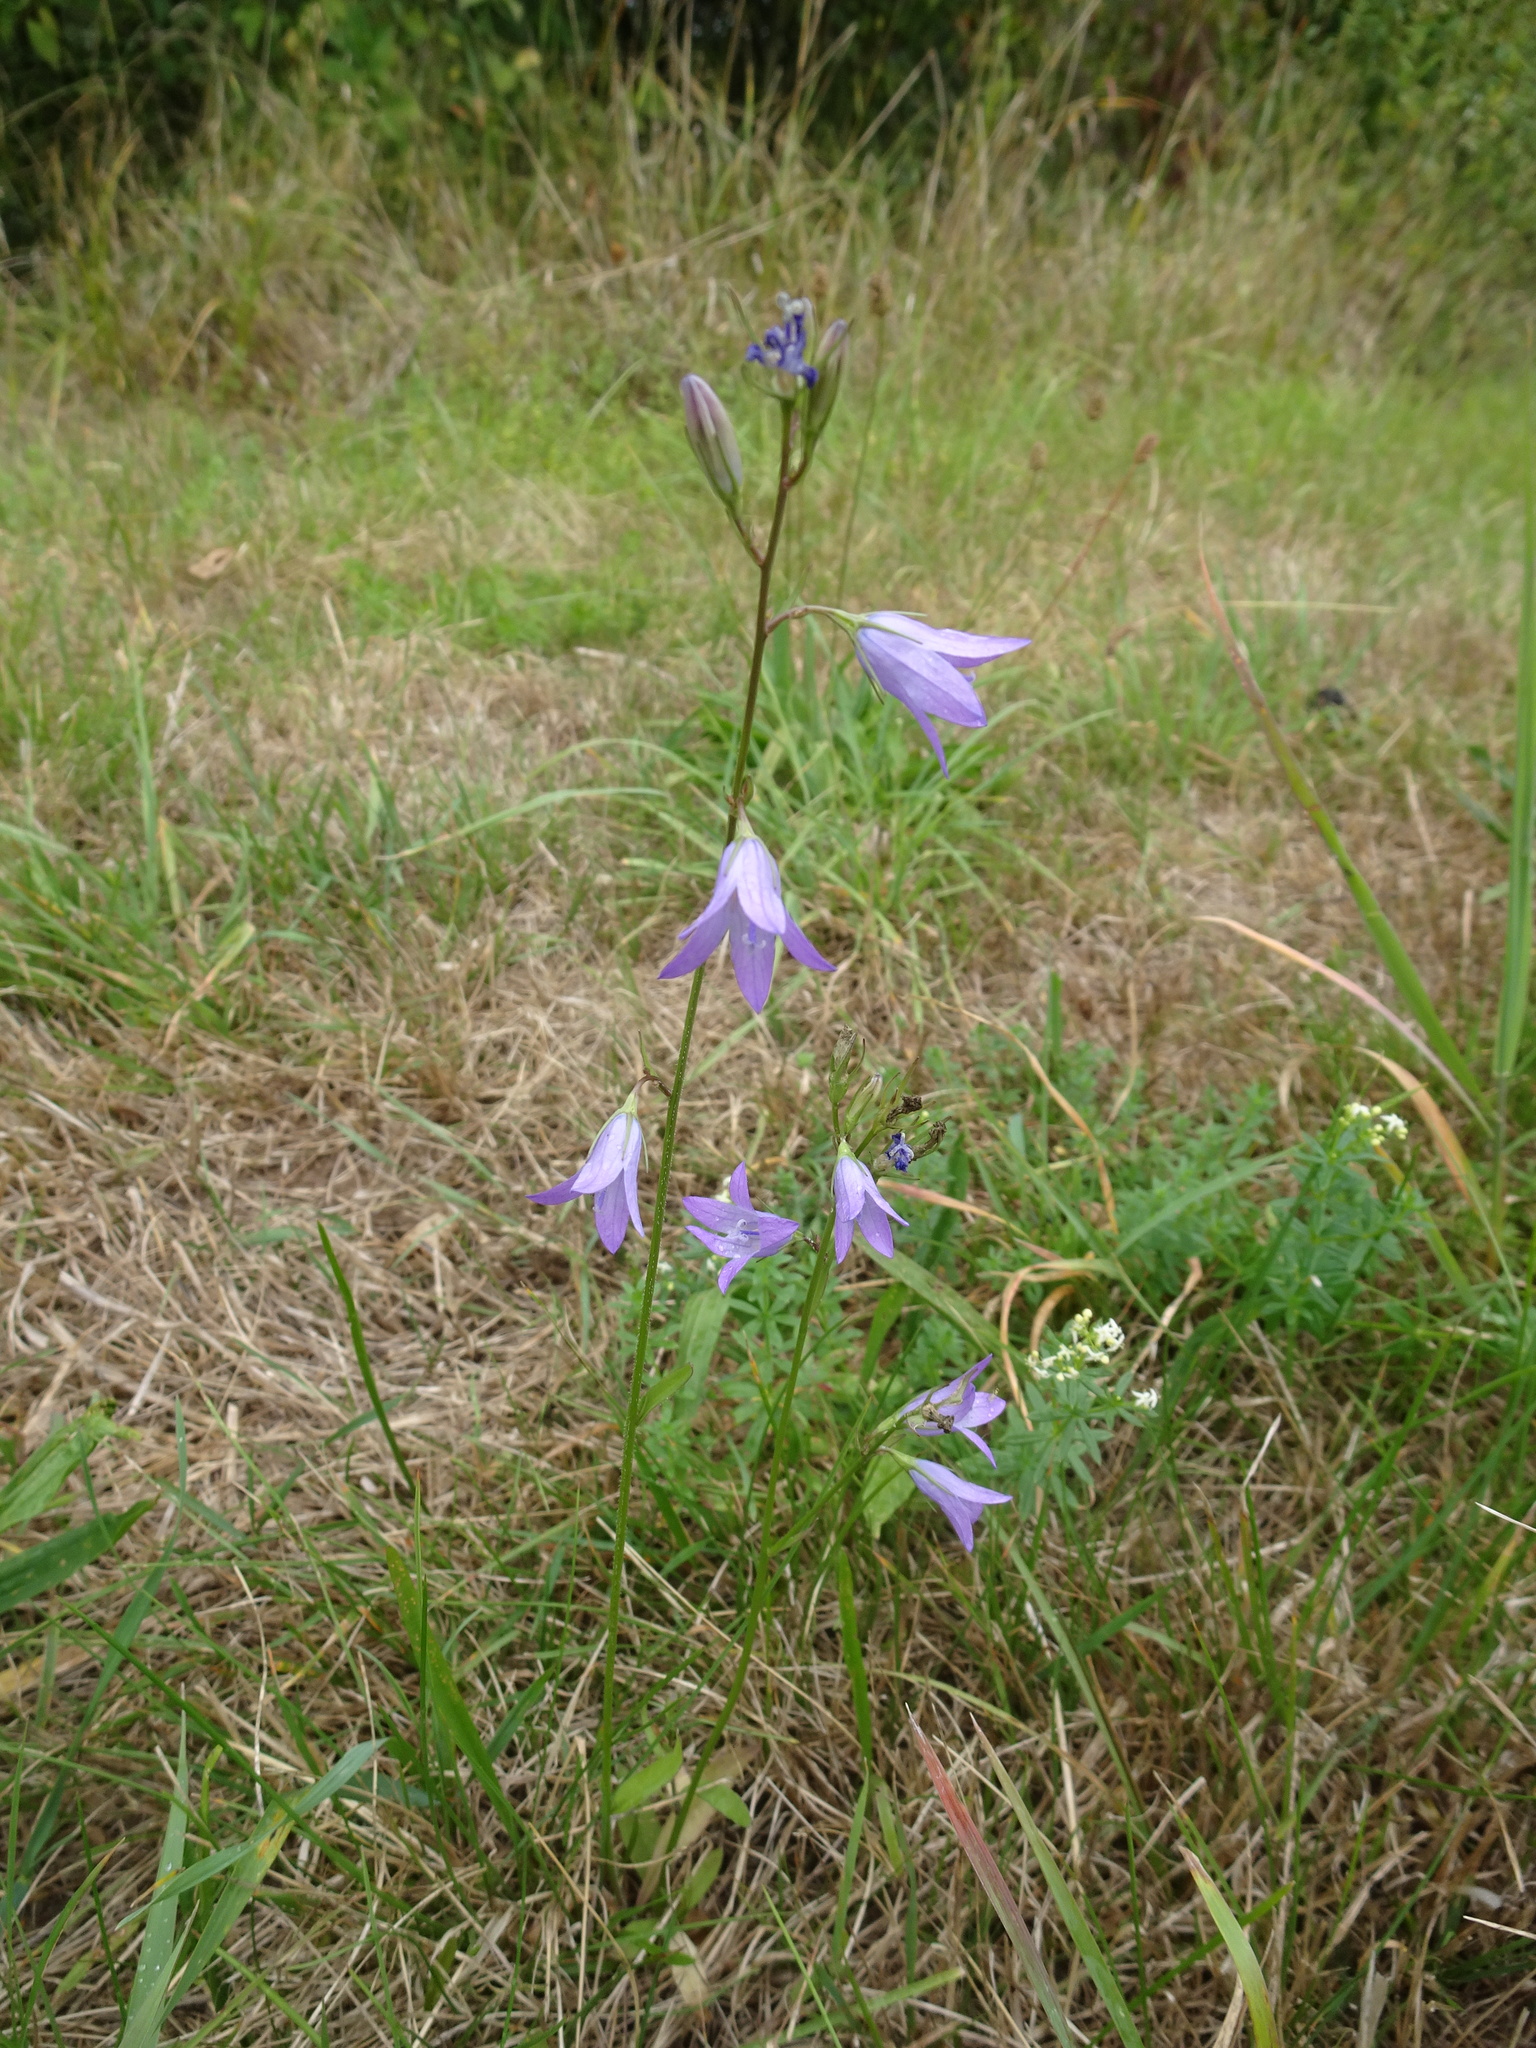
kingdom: Plantae
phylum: Tracheophyta
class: Magnoliopsida
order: Asterales
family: Campanulaceae
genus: Campanula
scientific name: Campanula rapunculus
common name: Rampion bellflower
